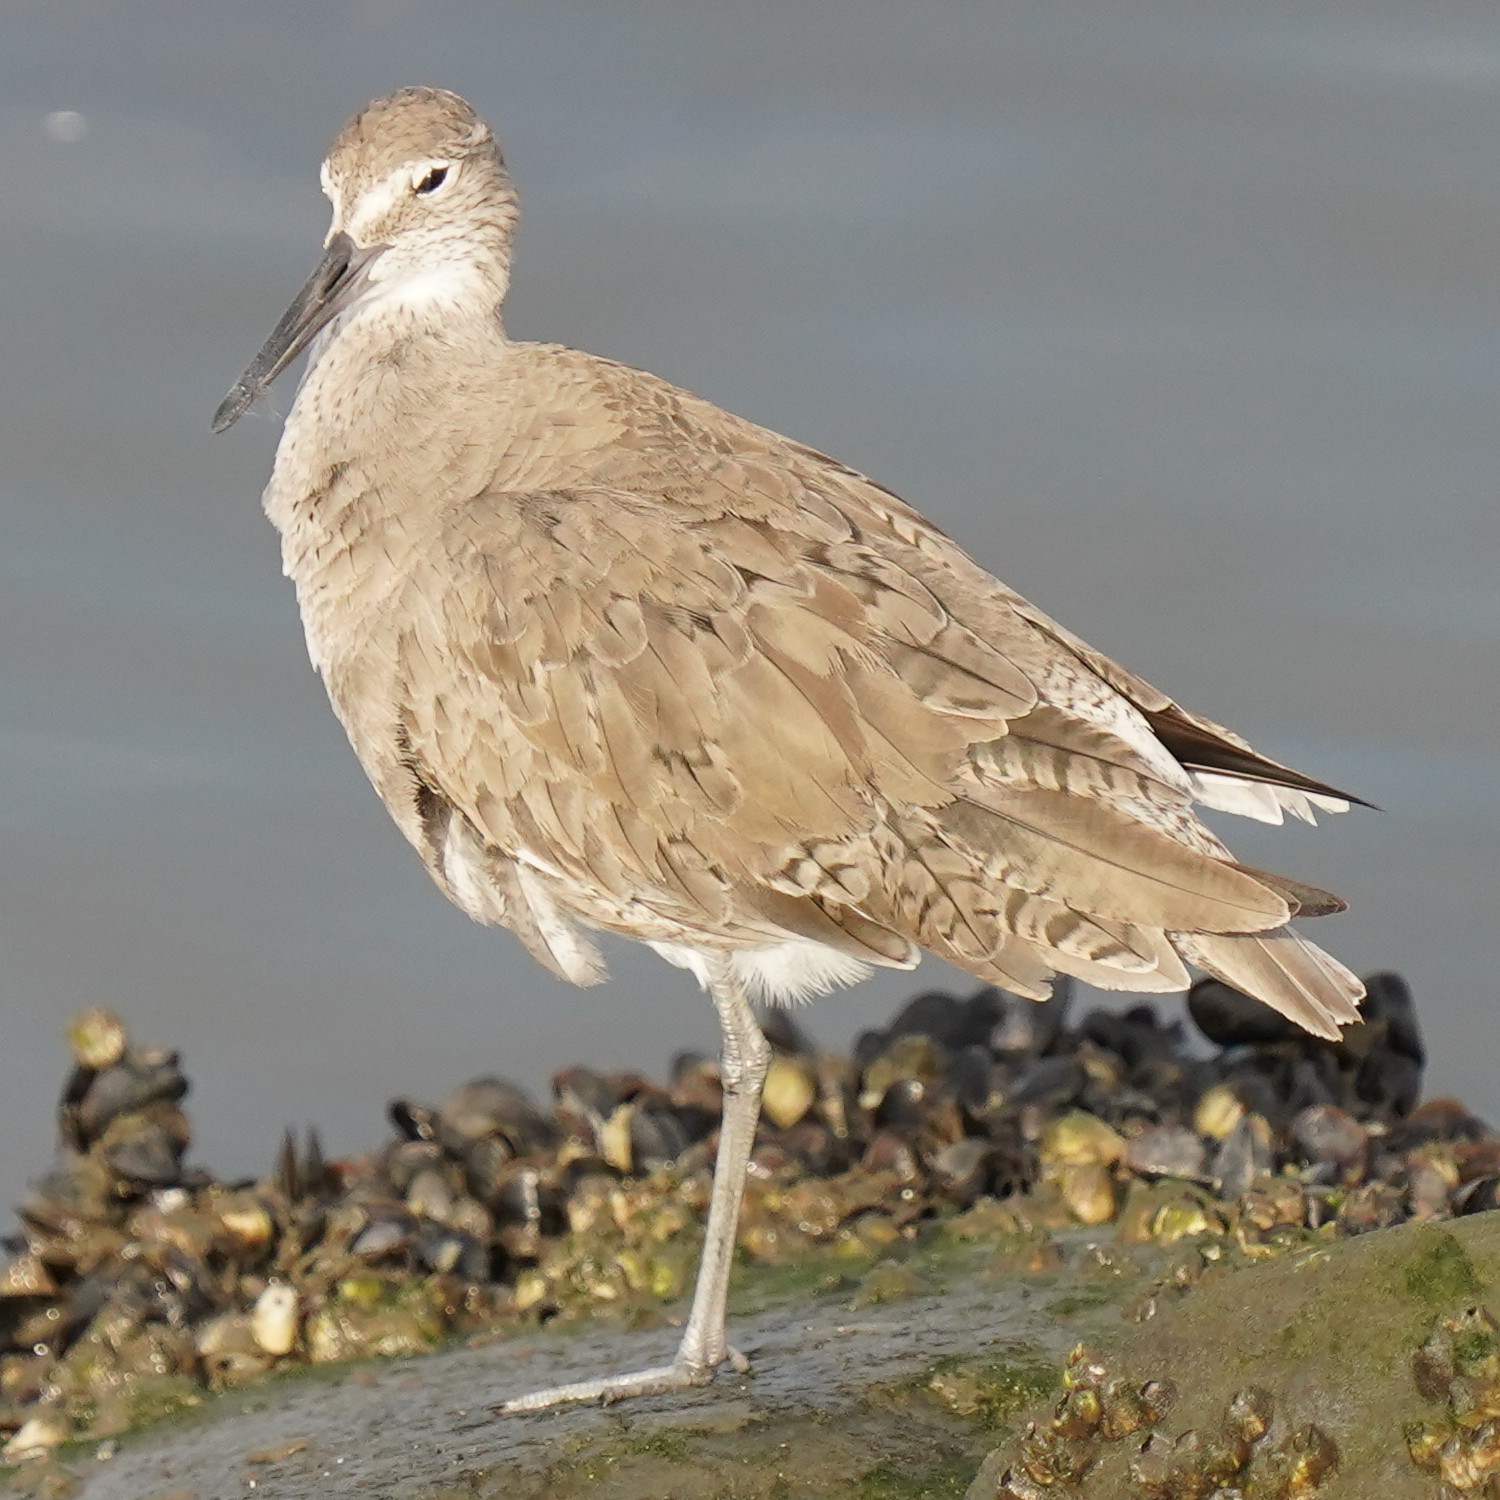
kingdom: Animalia
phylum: Chordata
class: Aves
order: Charadriiformes
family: Scolopacidae
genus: Tringa
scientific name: Tringa semipalmata
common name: Willet
